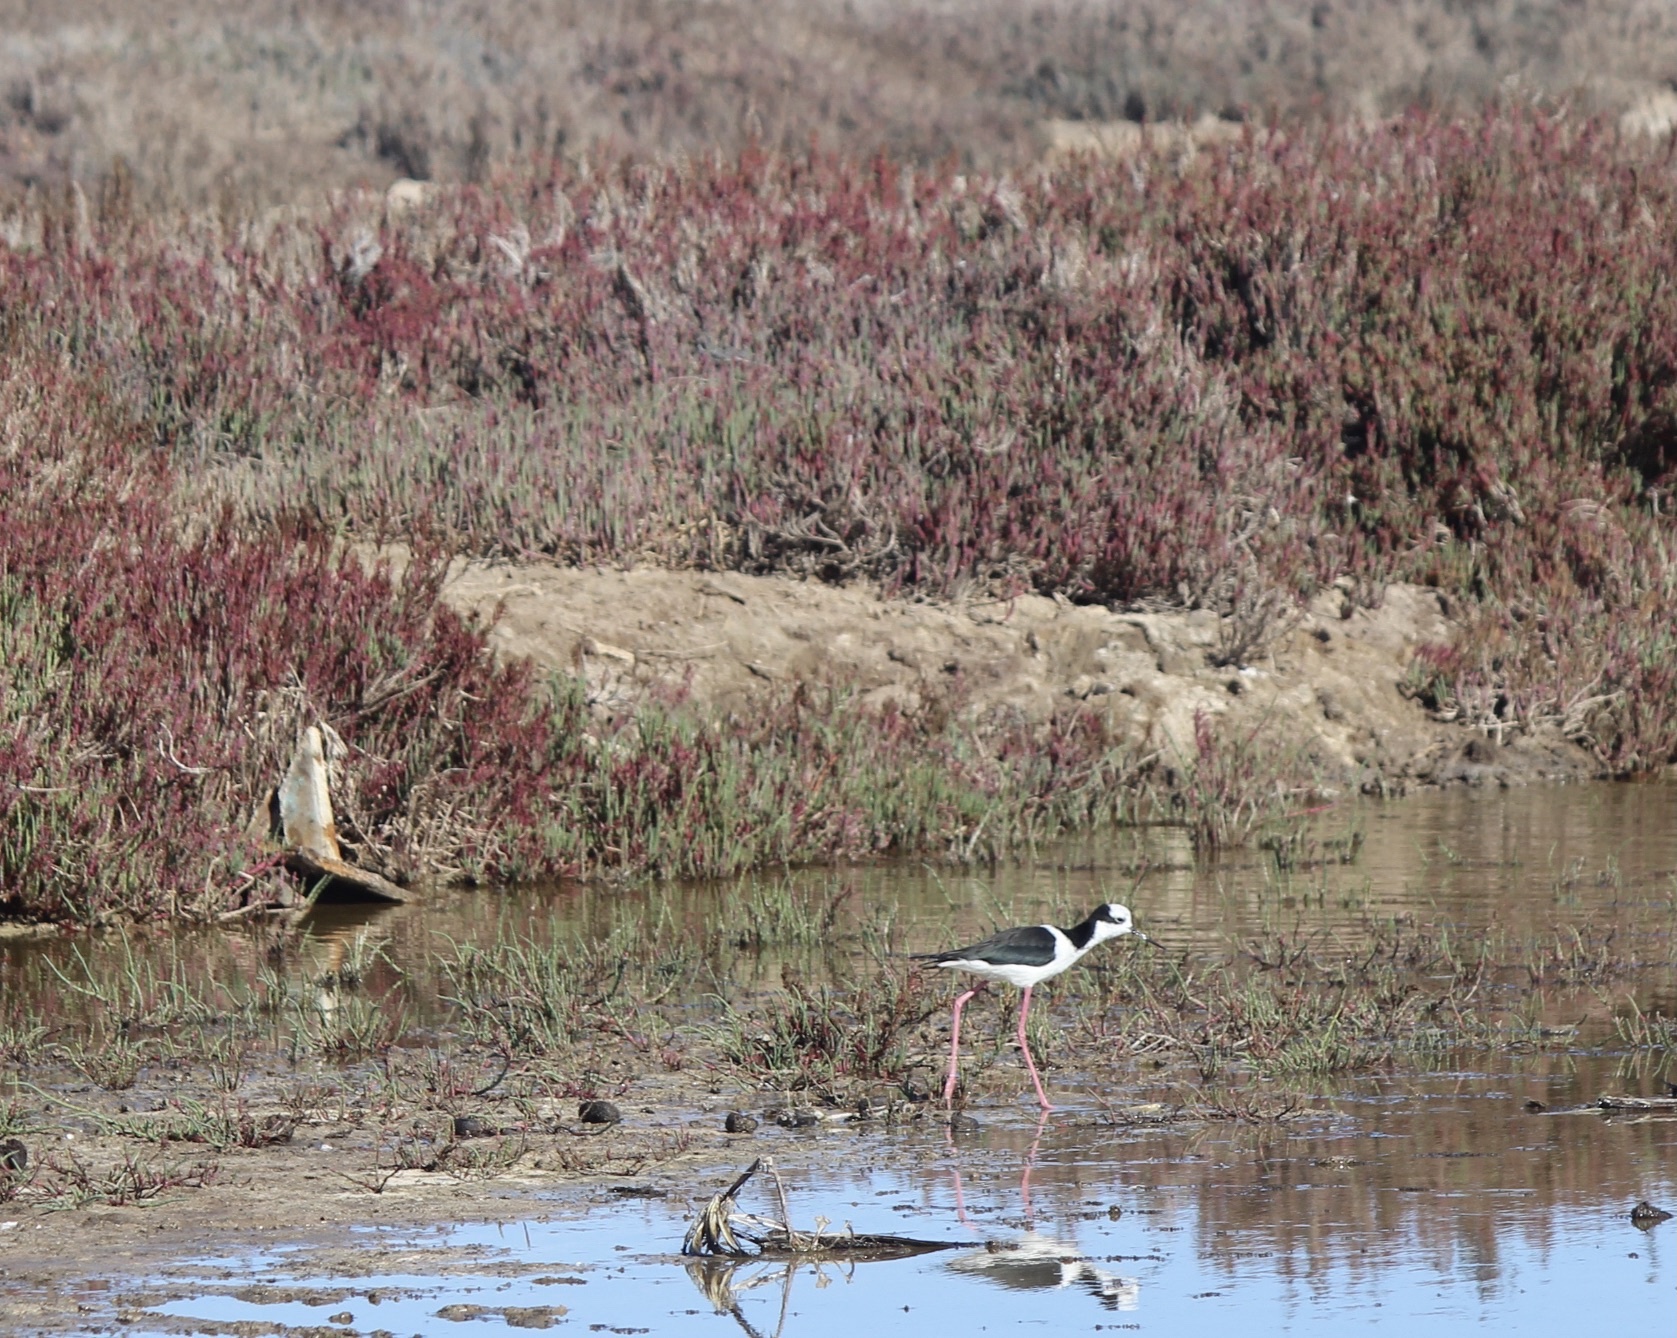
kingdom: Animalia
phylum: Chordata
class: Aves
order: Charadriiformes
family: Recurvirostridae
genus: Himantopus
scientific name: Himantopus mexicanus
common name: Black-necked stilt
